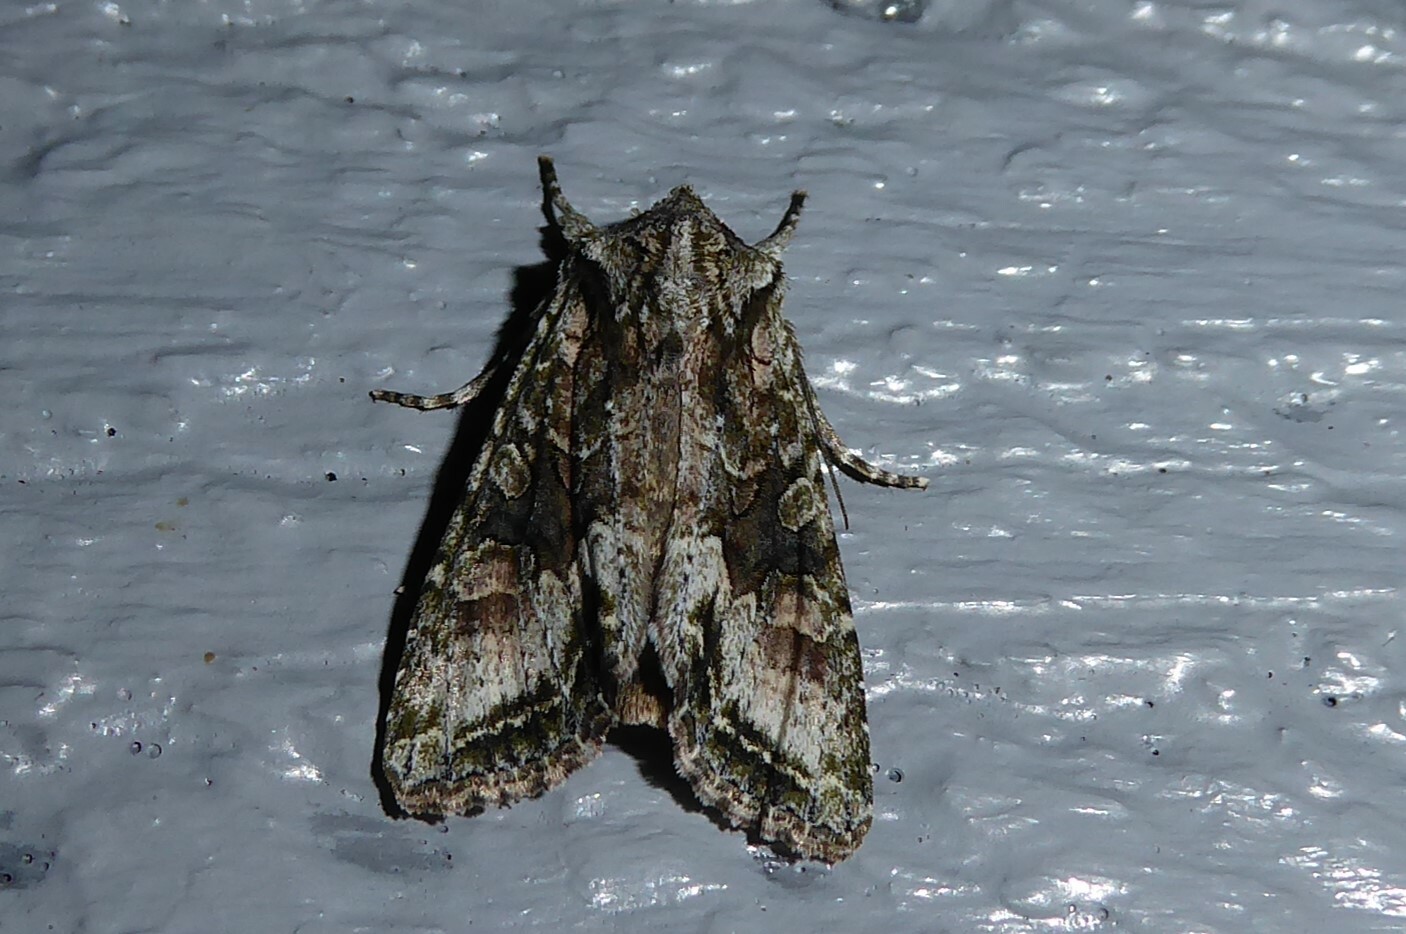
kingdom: Animalia
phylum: Arthropoda
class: Insecta
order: Lepidoptera
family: Noctuidae
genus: Ichneutica
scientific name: Ichneutica mutans
